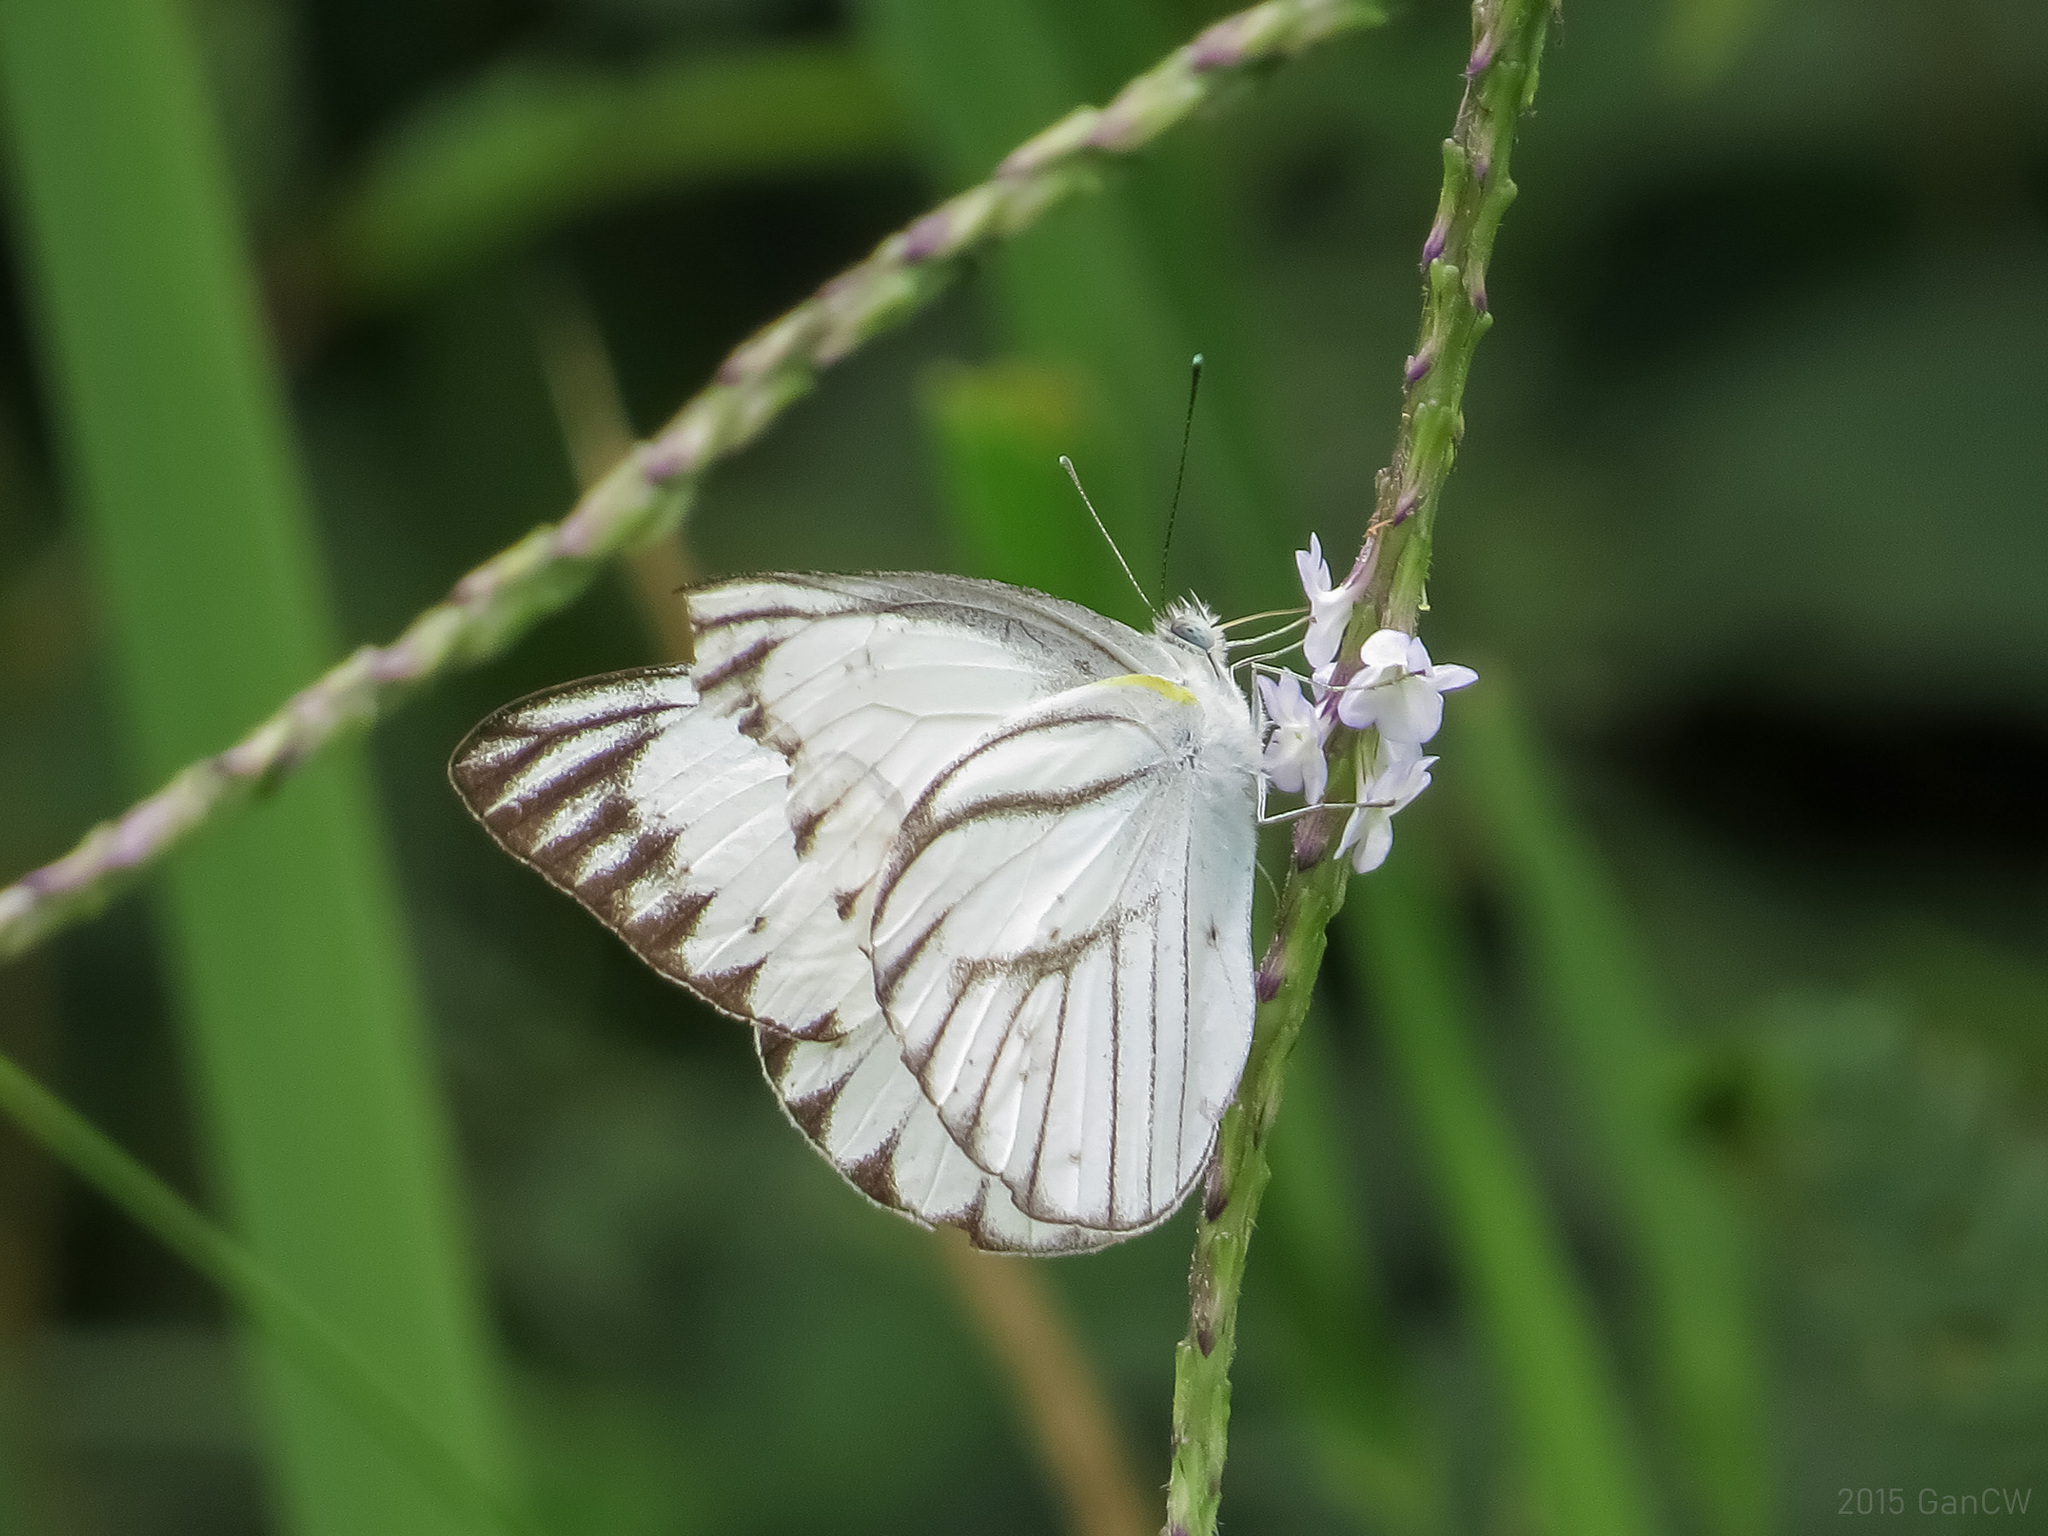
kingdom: Animalia
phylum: Arthropoda
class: Insecta
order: Lepidoptera
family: Pieridae
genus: Appias
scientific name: Appias libythea
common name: Striped albatross
